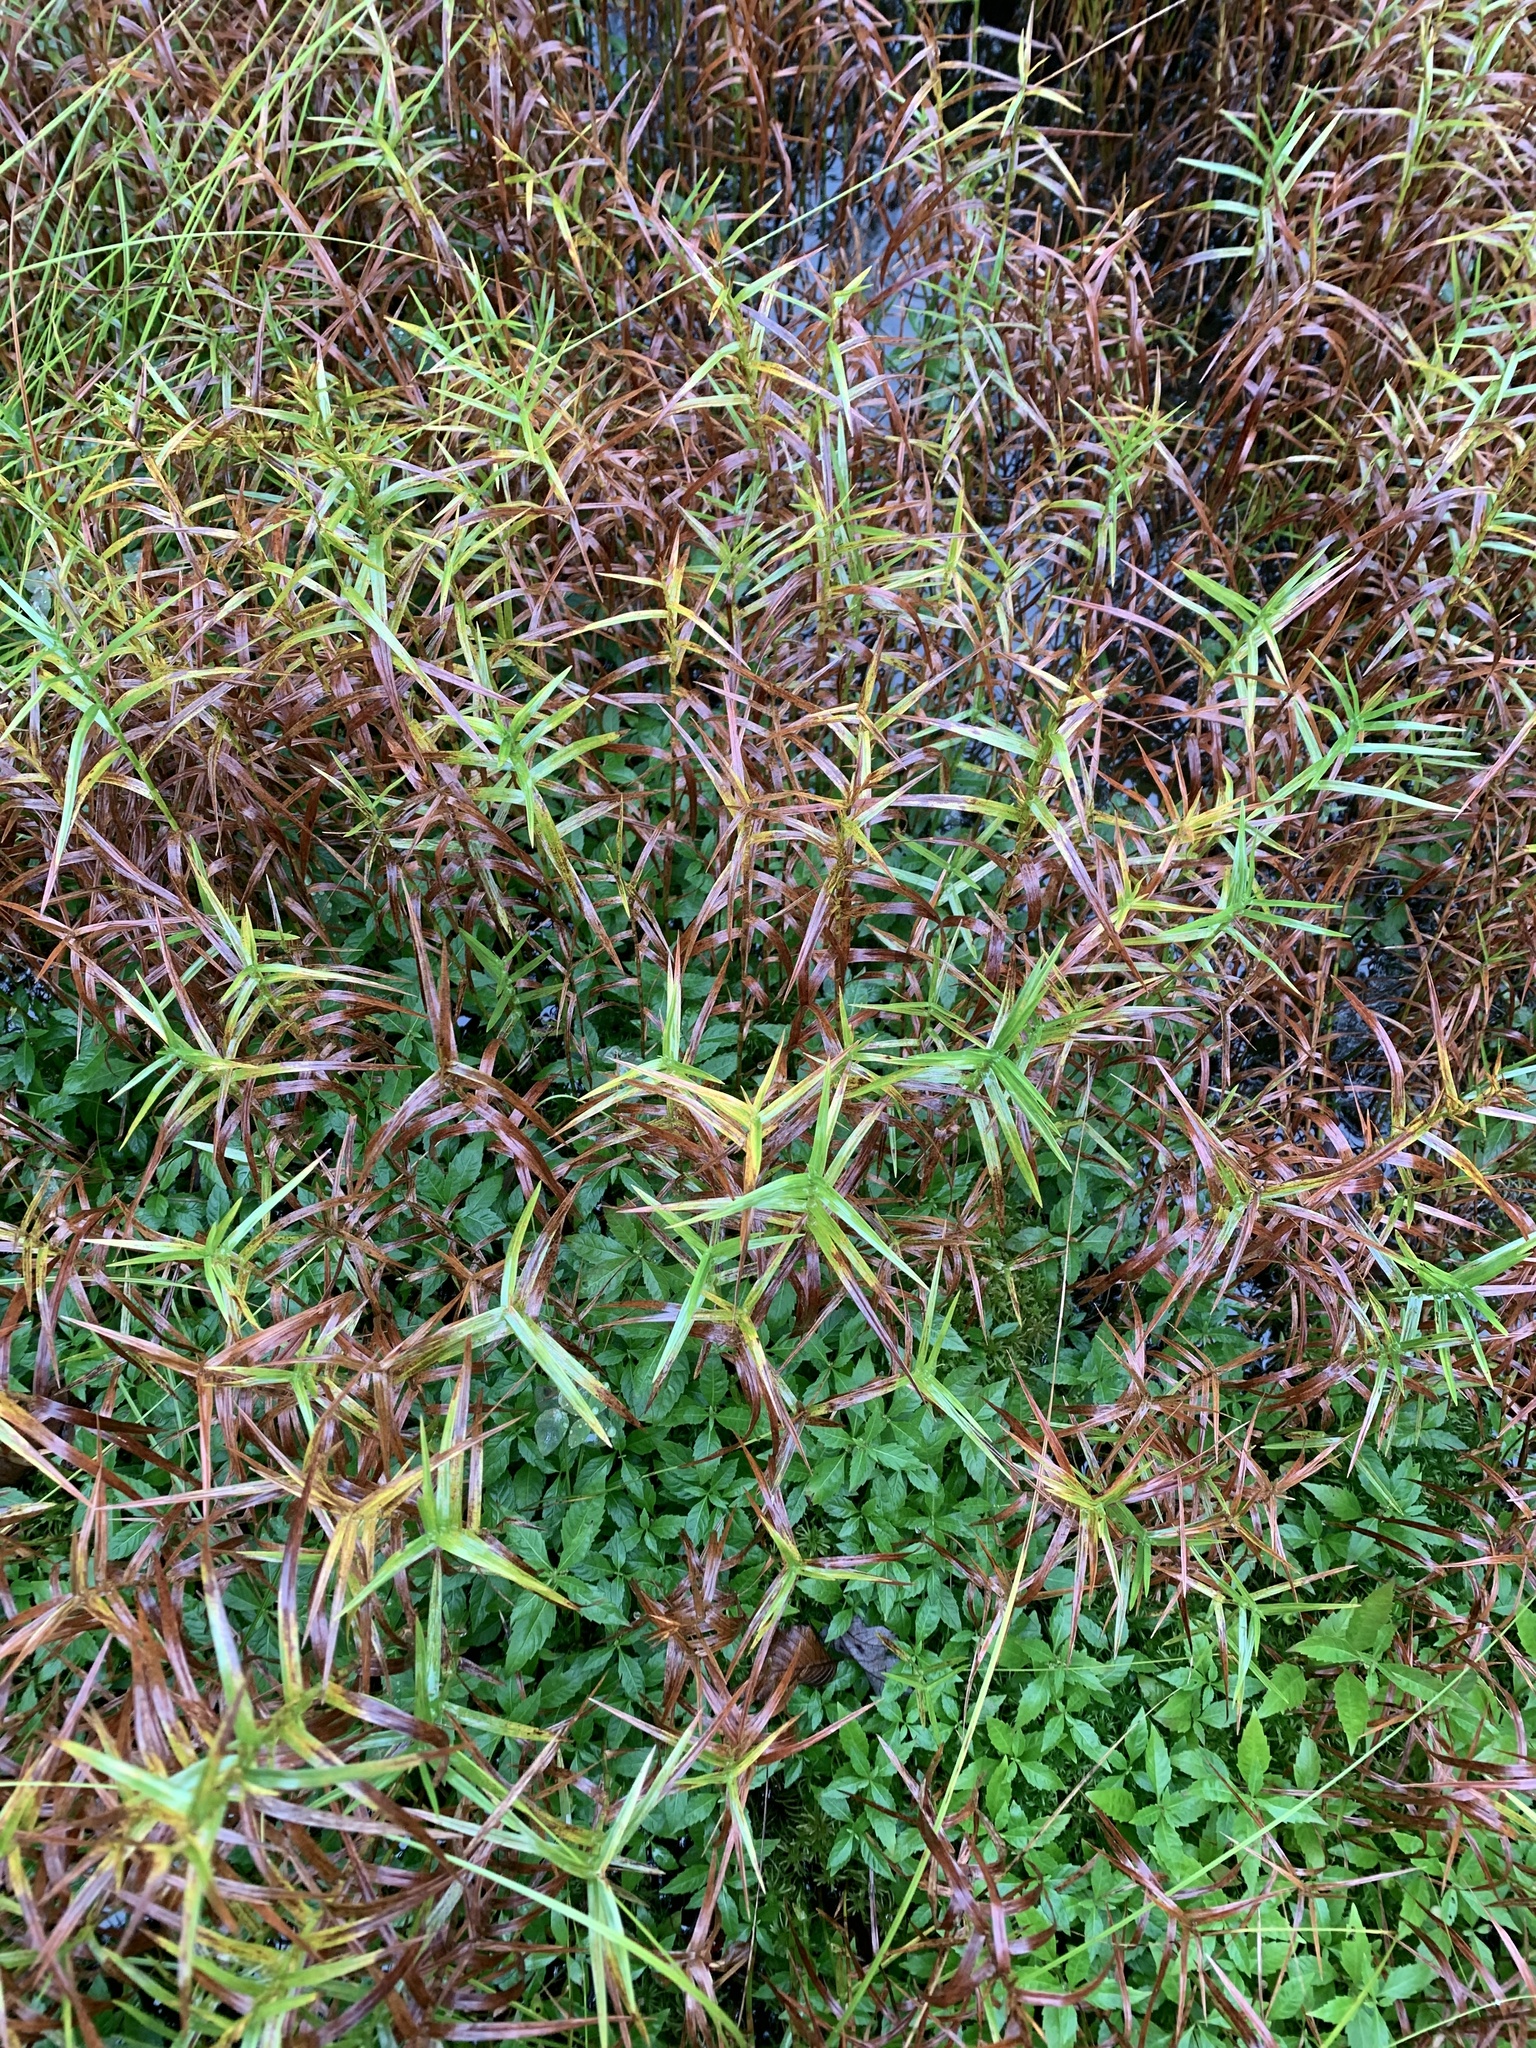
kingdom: Plantae
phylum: Tracheophyta
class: Liliopsida
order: Poales
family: Cyperaceae
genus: Dulichium
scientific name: Dulichium arundinaceum
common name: Three-way sedge
